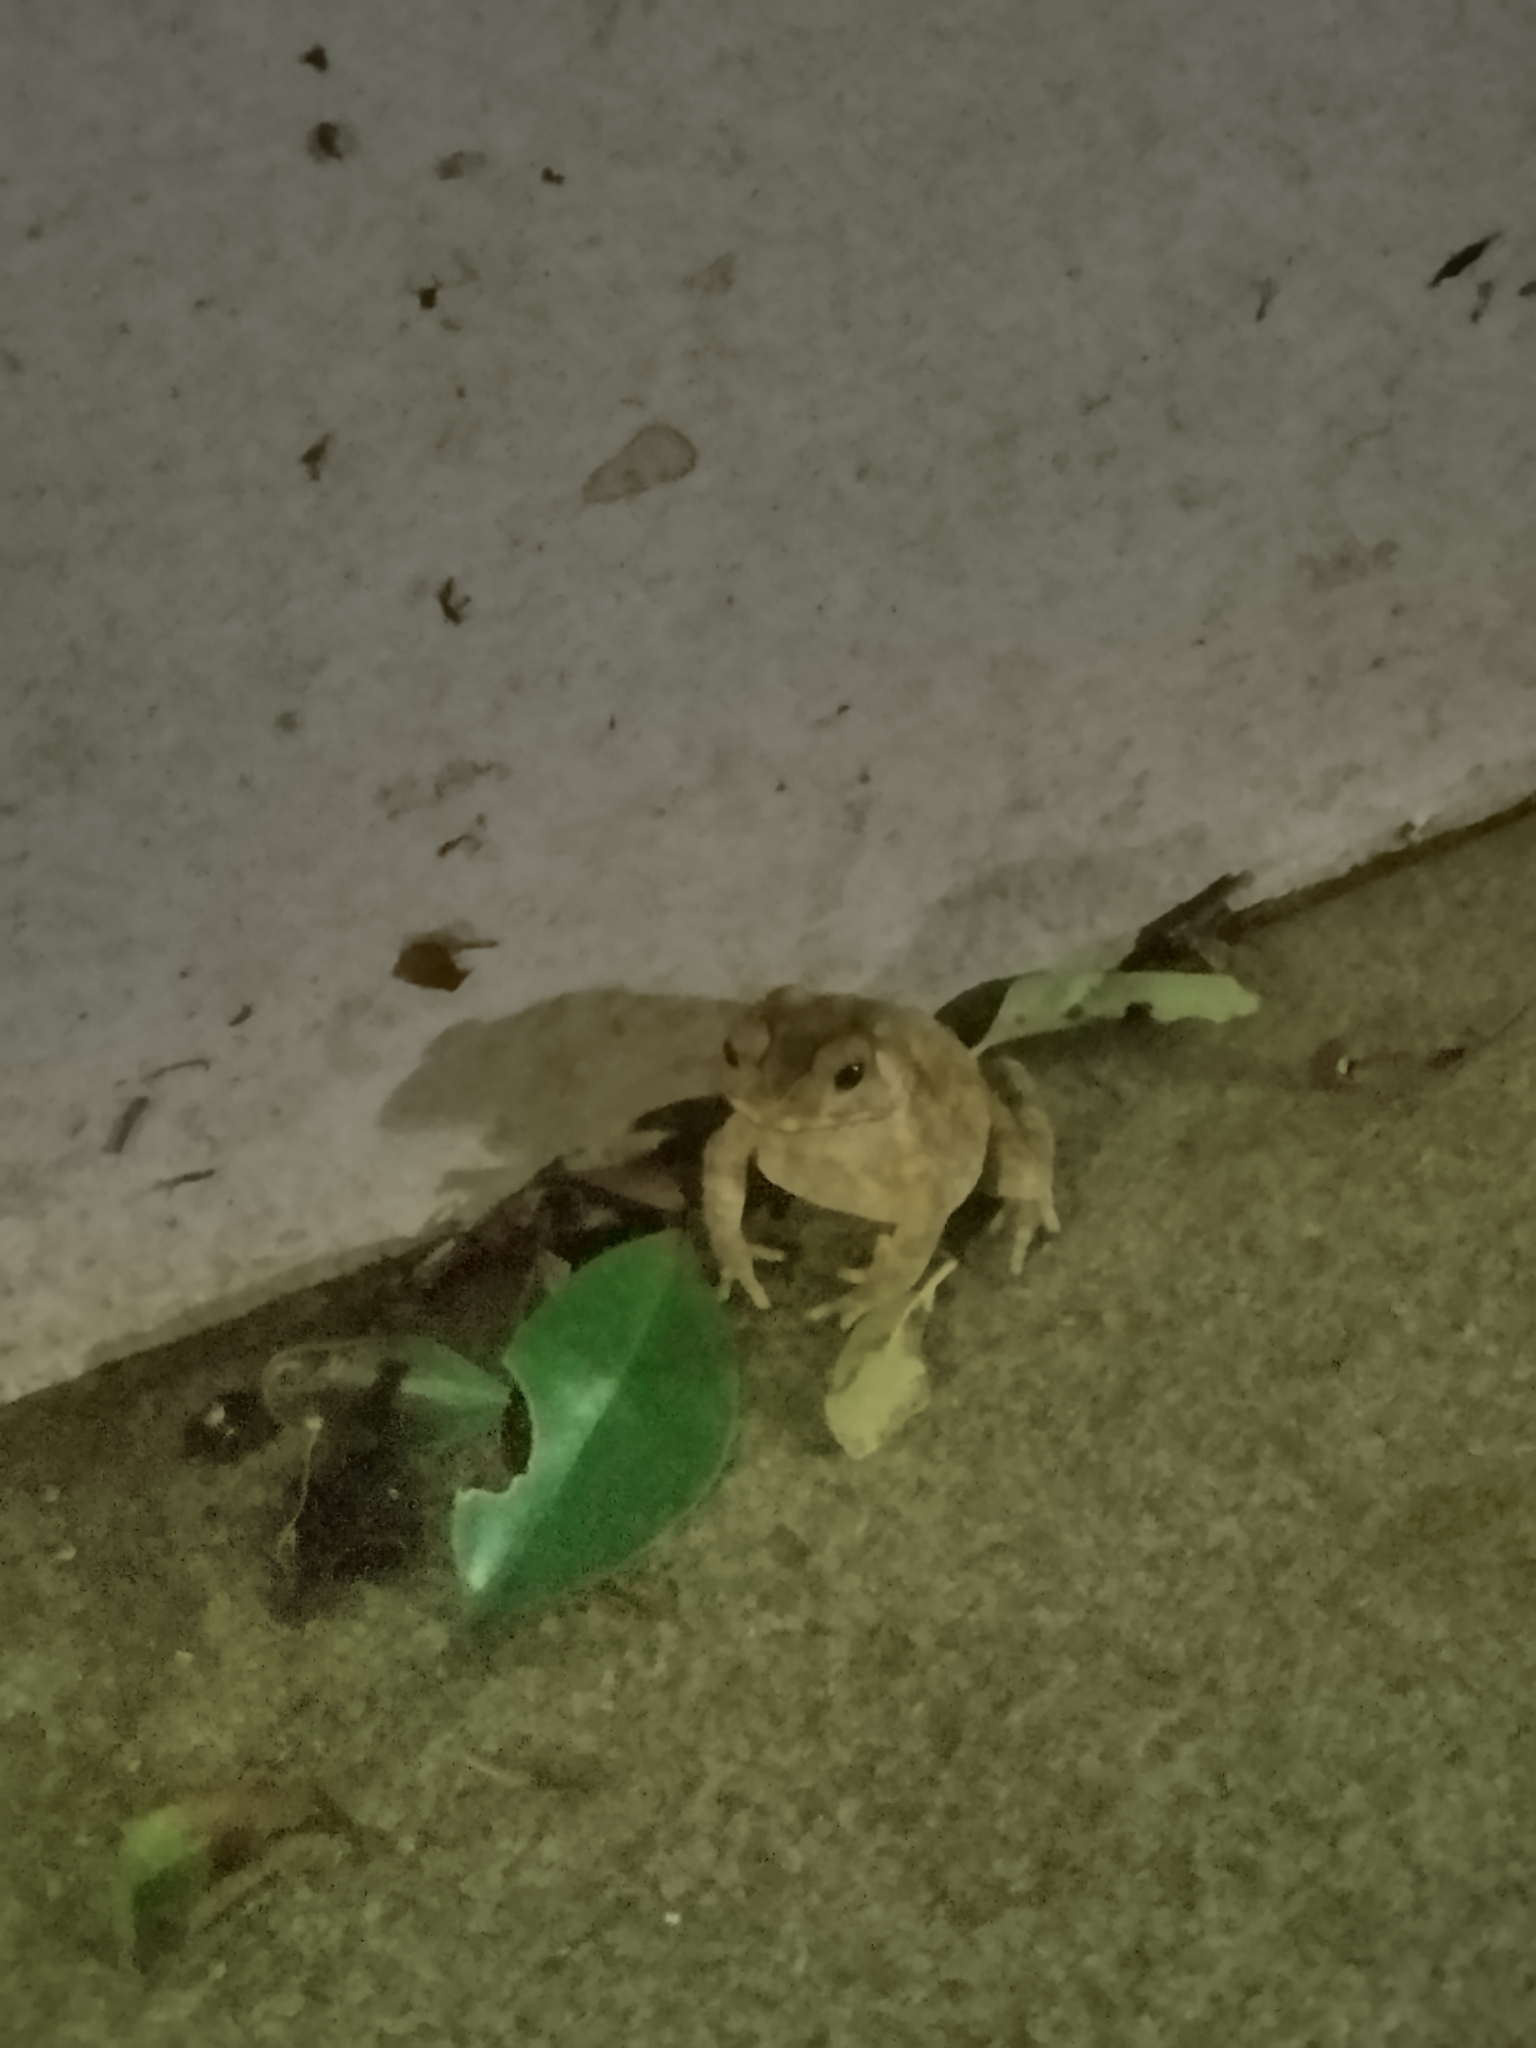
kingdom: Animalia
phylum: Chordata
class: Amphibia
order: Anura
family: Bufonidae
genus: Duttaphrynus
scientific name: Duttaphrynus melanostictus
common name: Common sunda toad
